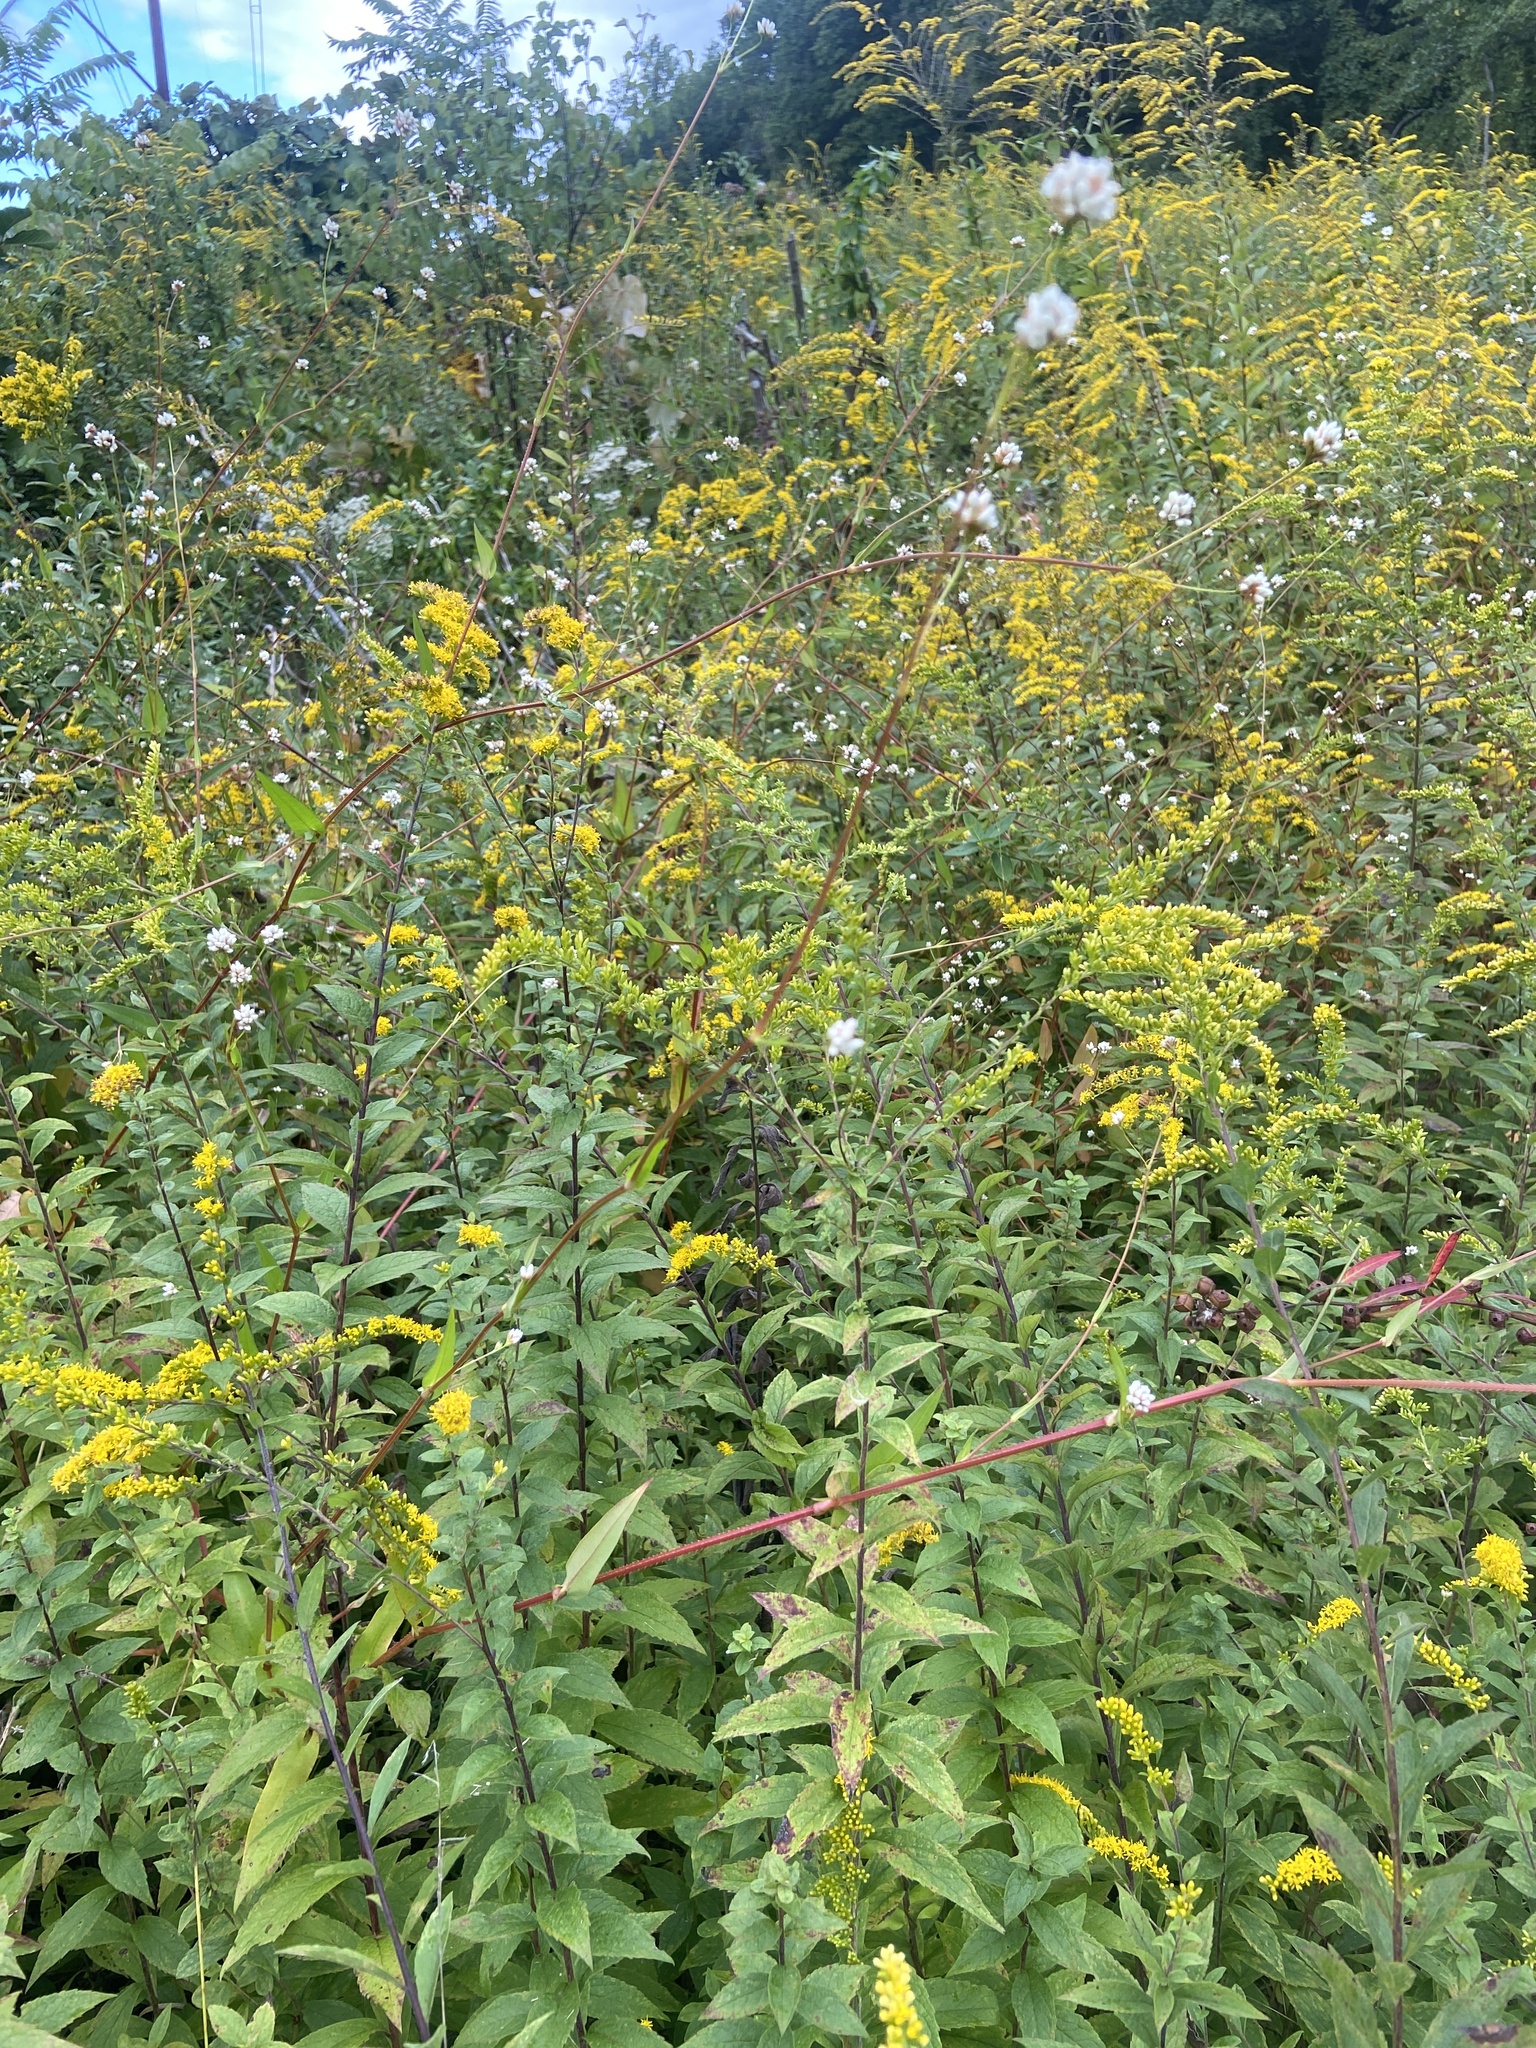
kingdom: Plantae
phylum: Tracheophyta
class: Magnoliopsida
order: Caryophyllales
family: Polygonaceae
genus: Persicaria
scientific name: Persicaria sagittata
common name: American tearthumb
